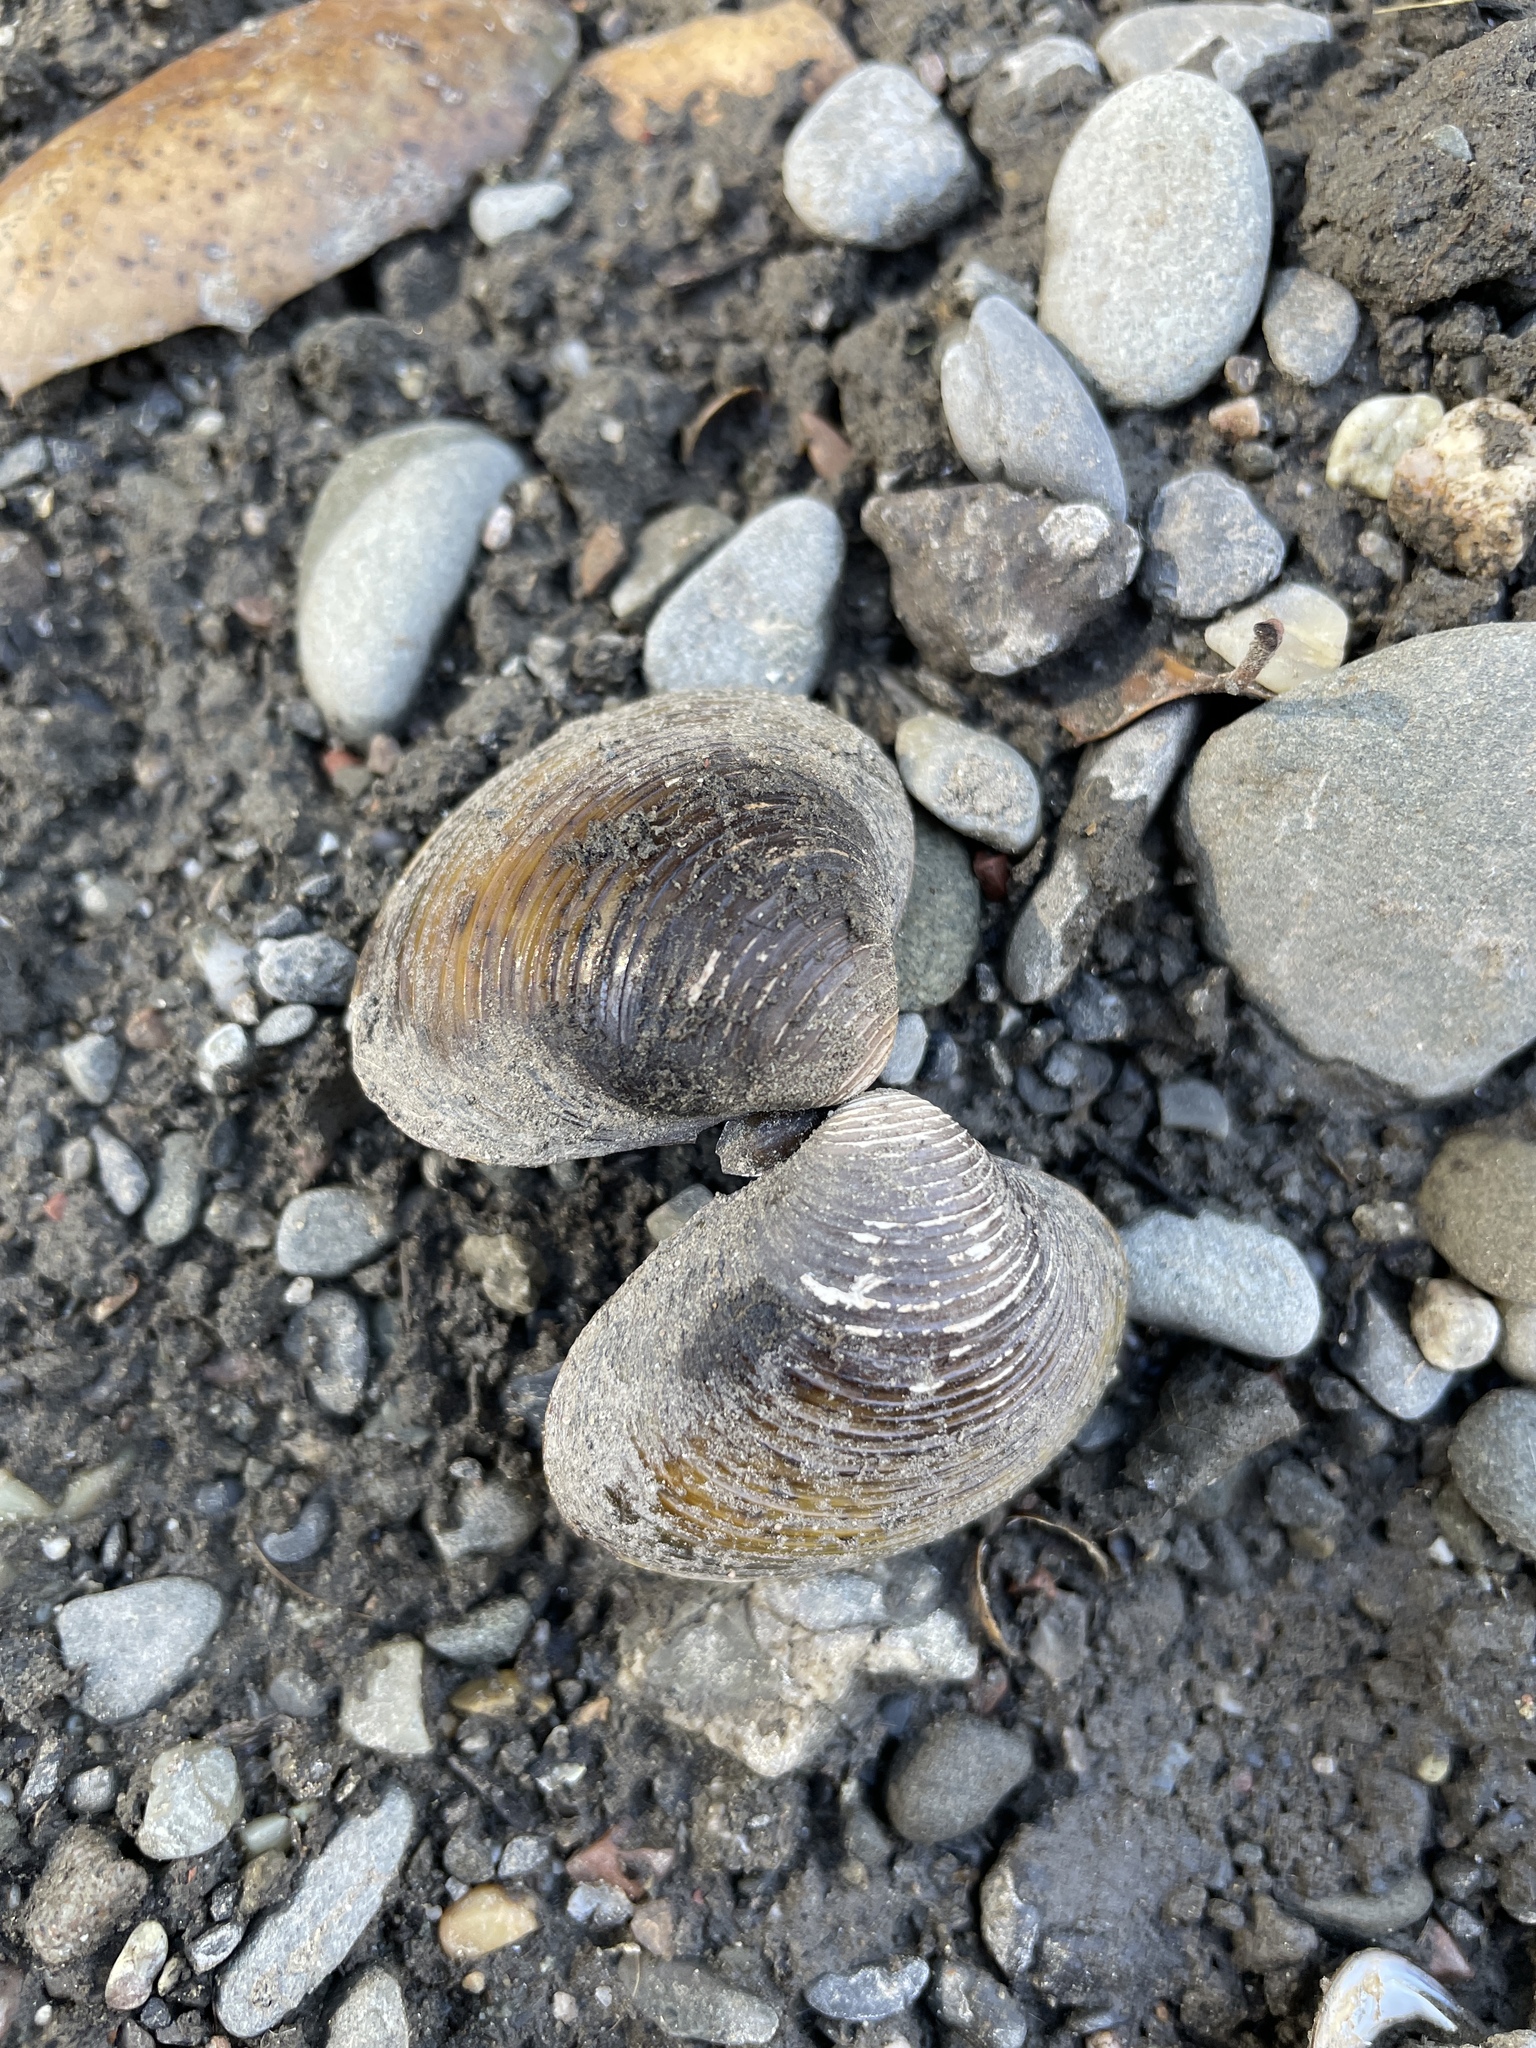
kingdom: Animalia
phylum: Mollusca
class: Bivalvia
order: Venerida
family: Cyrenidae
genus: Corbicula
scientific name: Corbicula fluminea
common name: Asian clam
